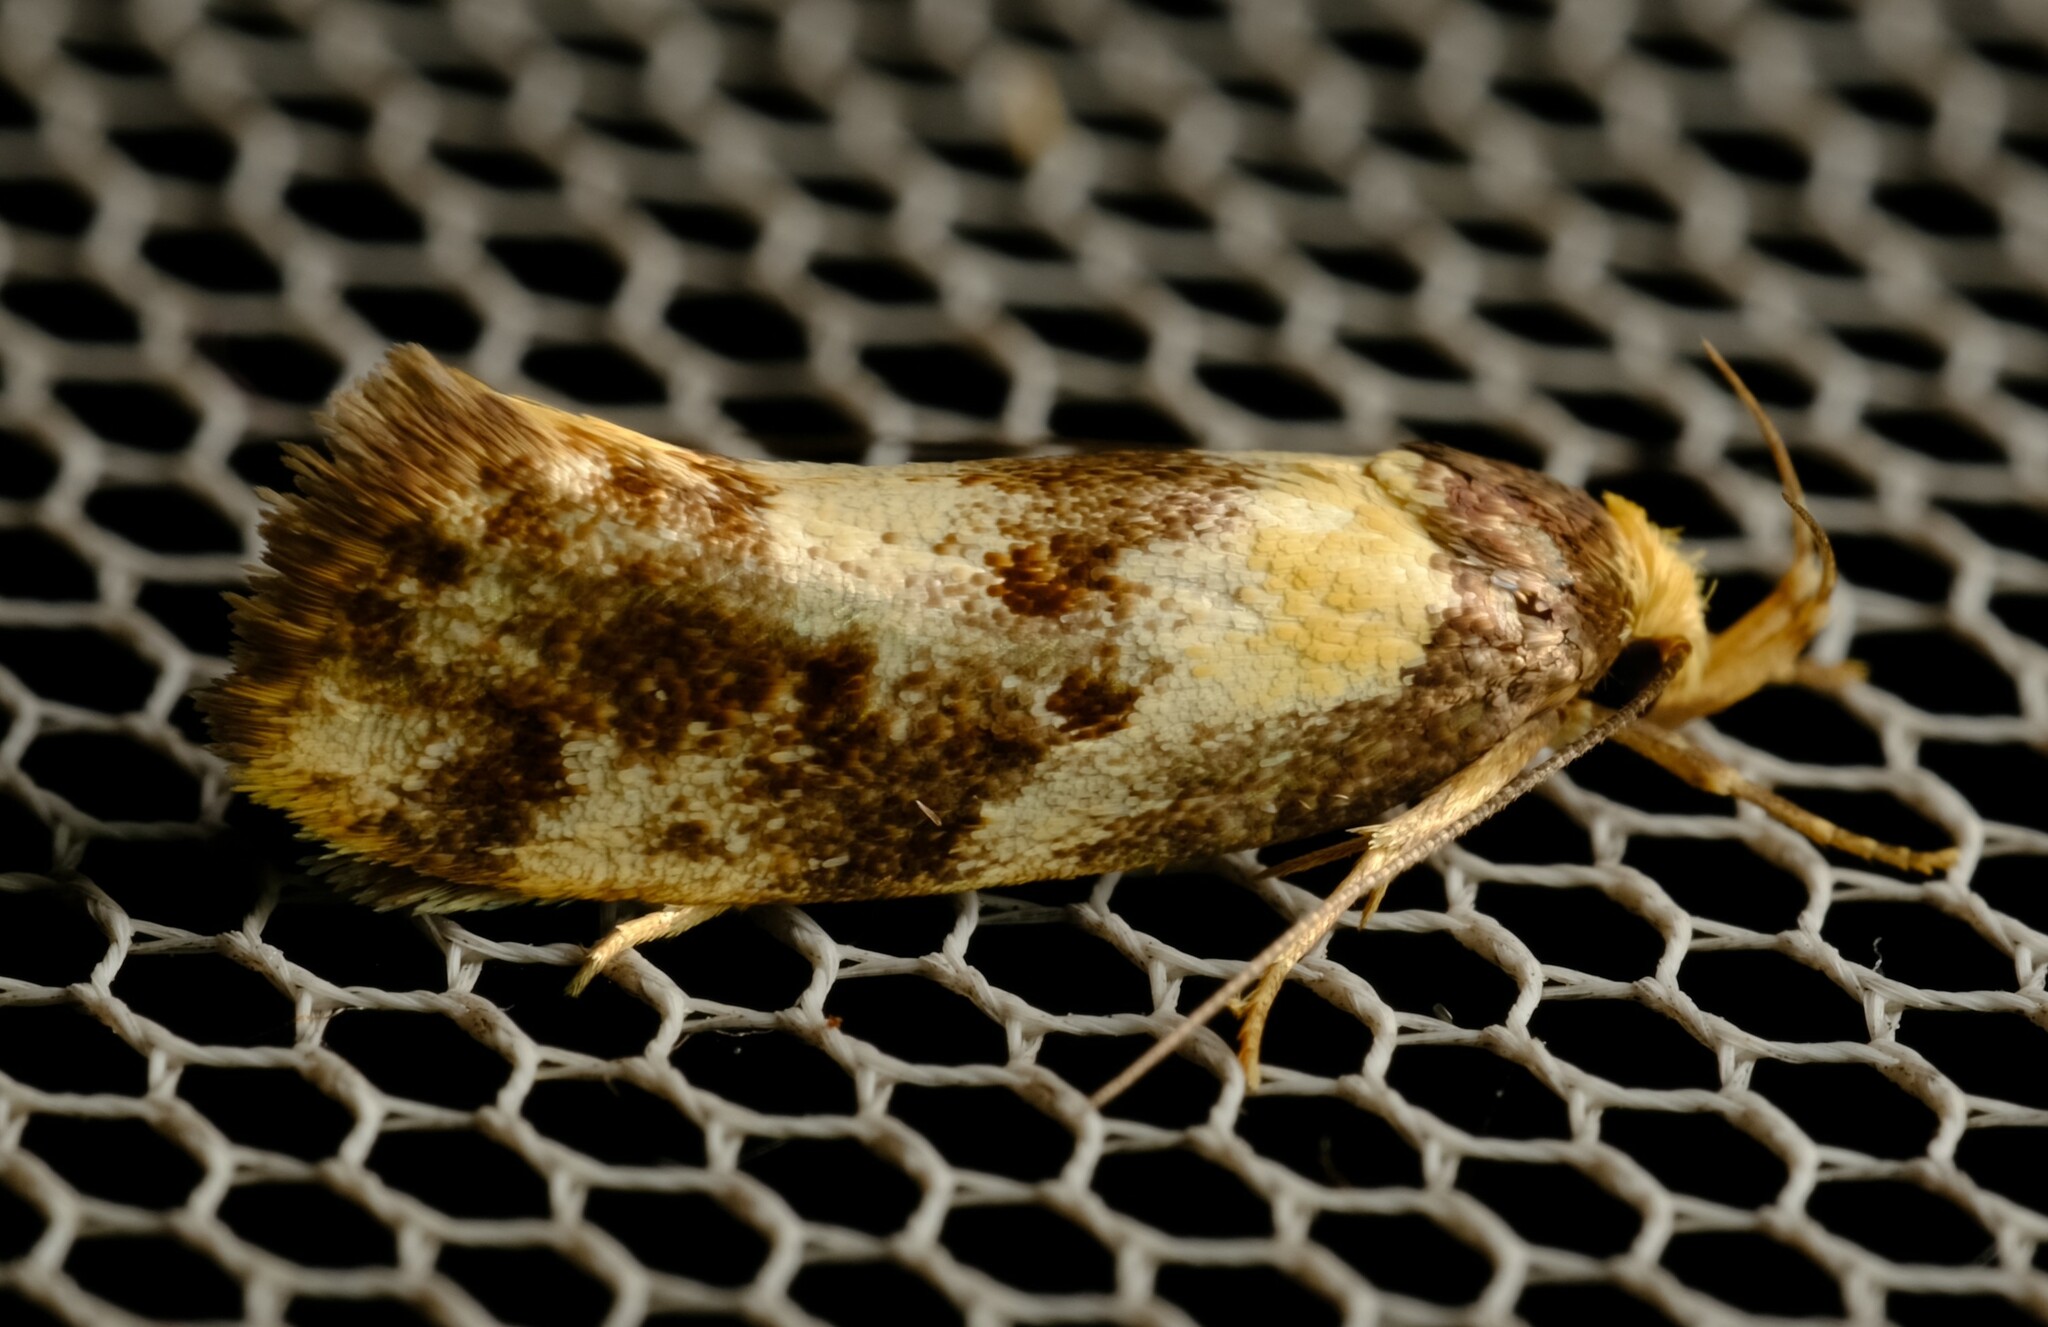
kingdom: Animalia
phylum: Arthropoda
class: Insecta
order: Lepidoptera
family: Oecophoridae
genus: Eulechria
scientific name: Eulechria marmorata
